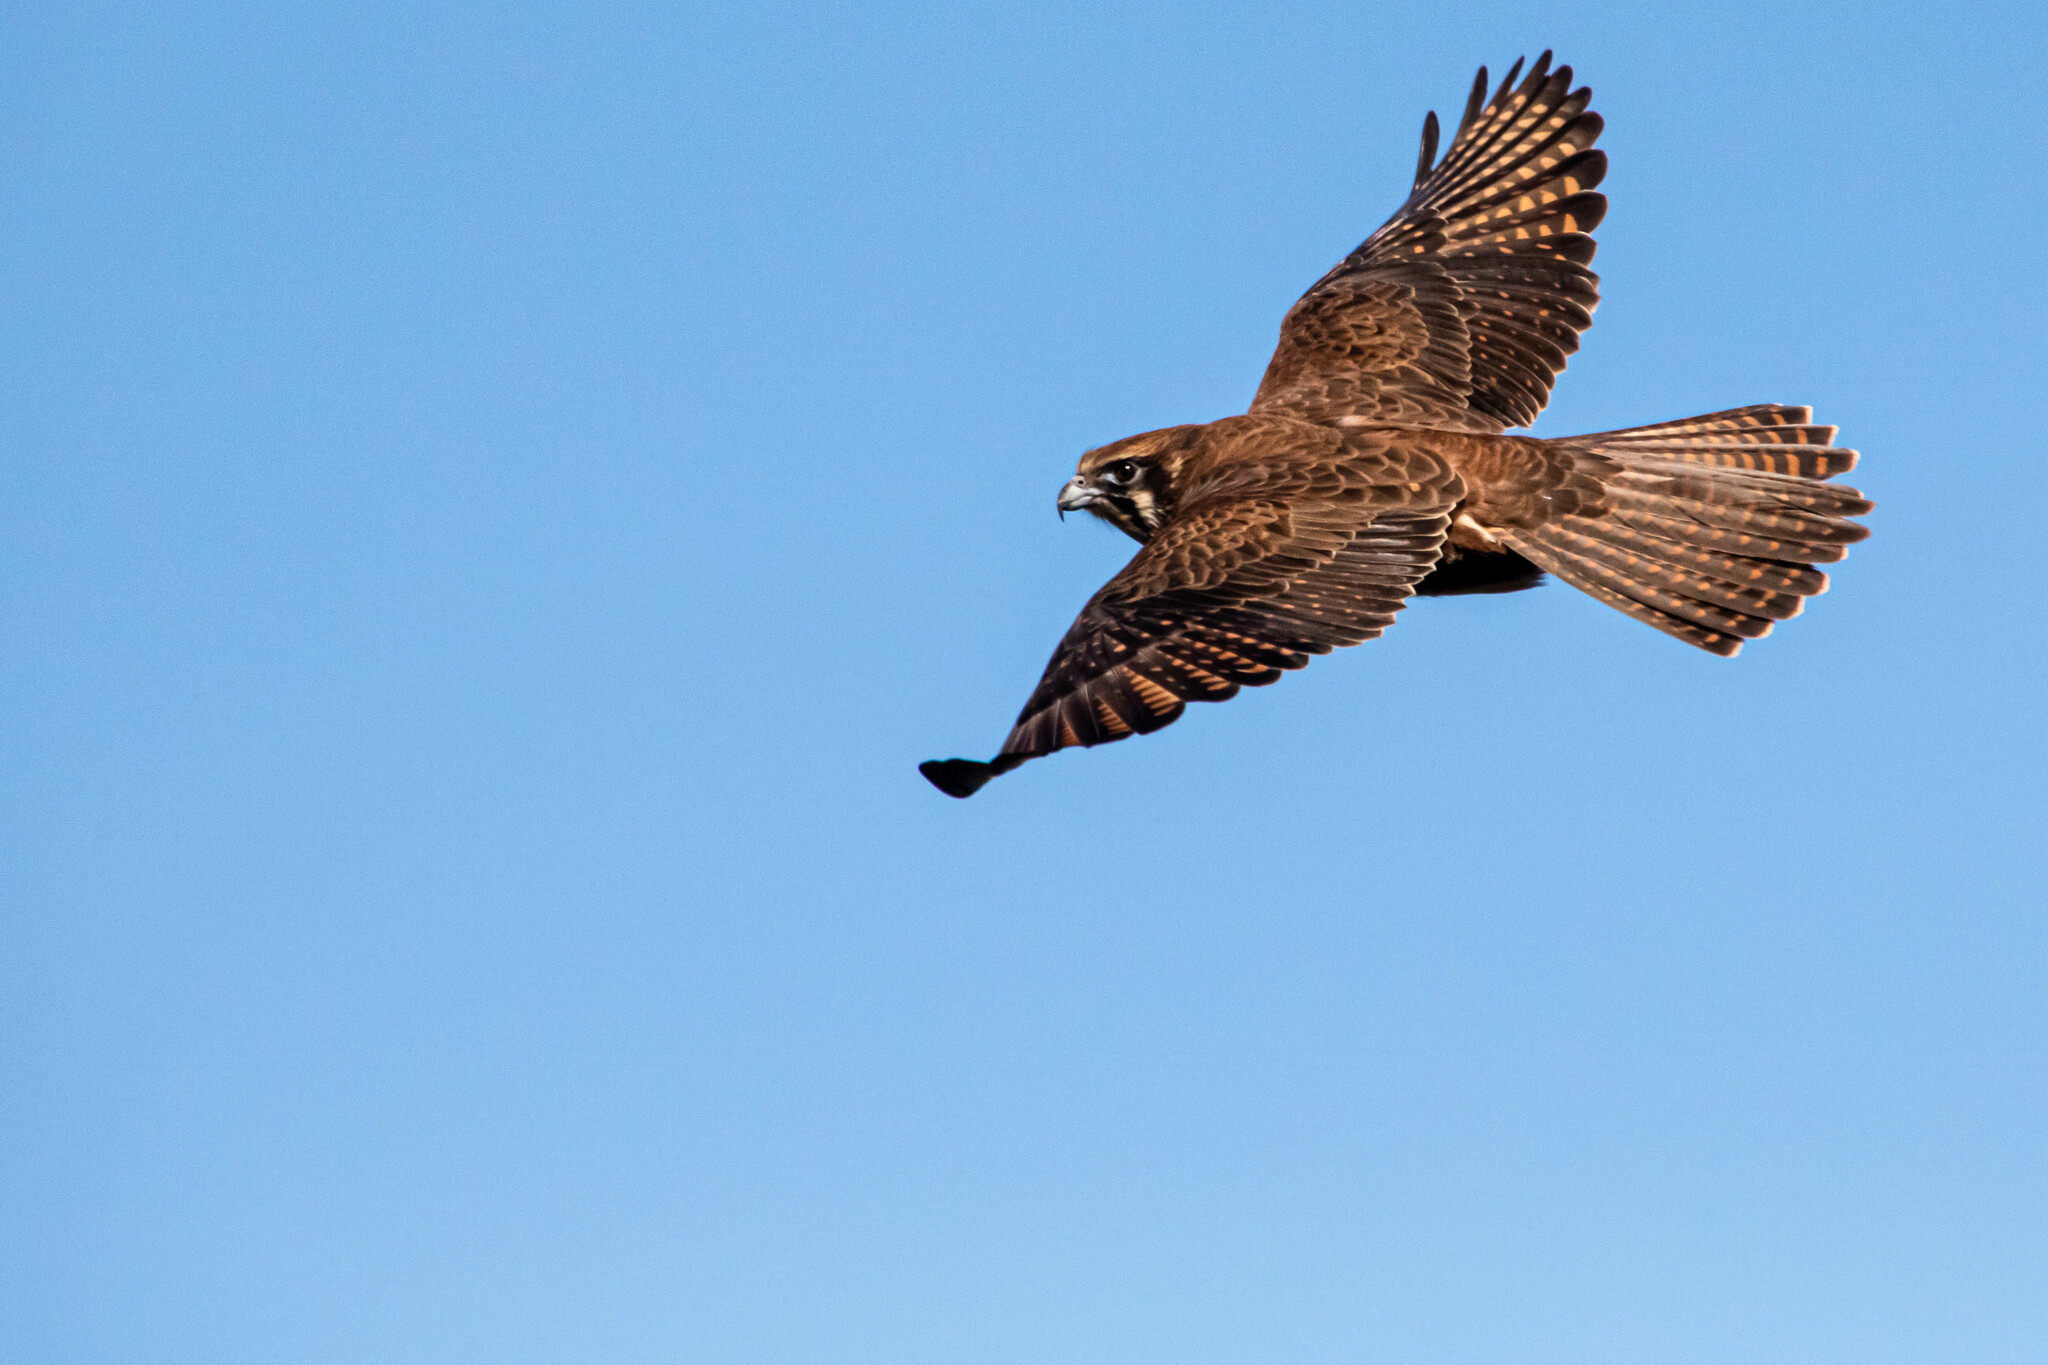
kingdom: Animalia
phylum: Chordata
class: Aves
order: Falconiformes
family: Falconidae
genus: Falco
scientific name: Falco berigora
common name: Brown falcon
